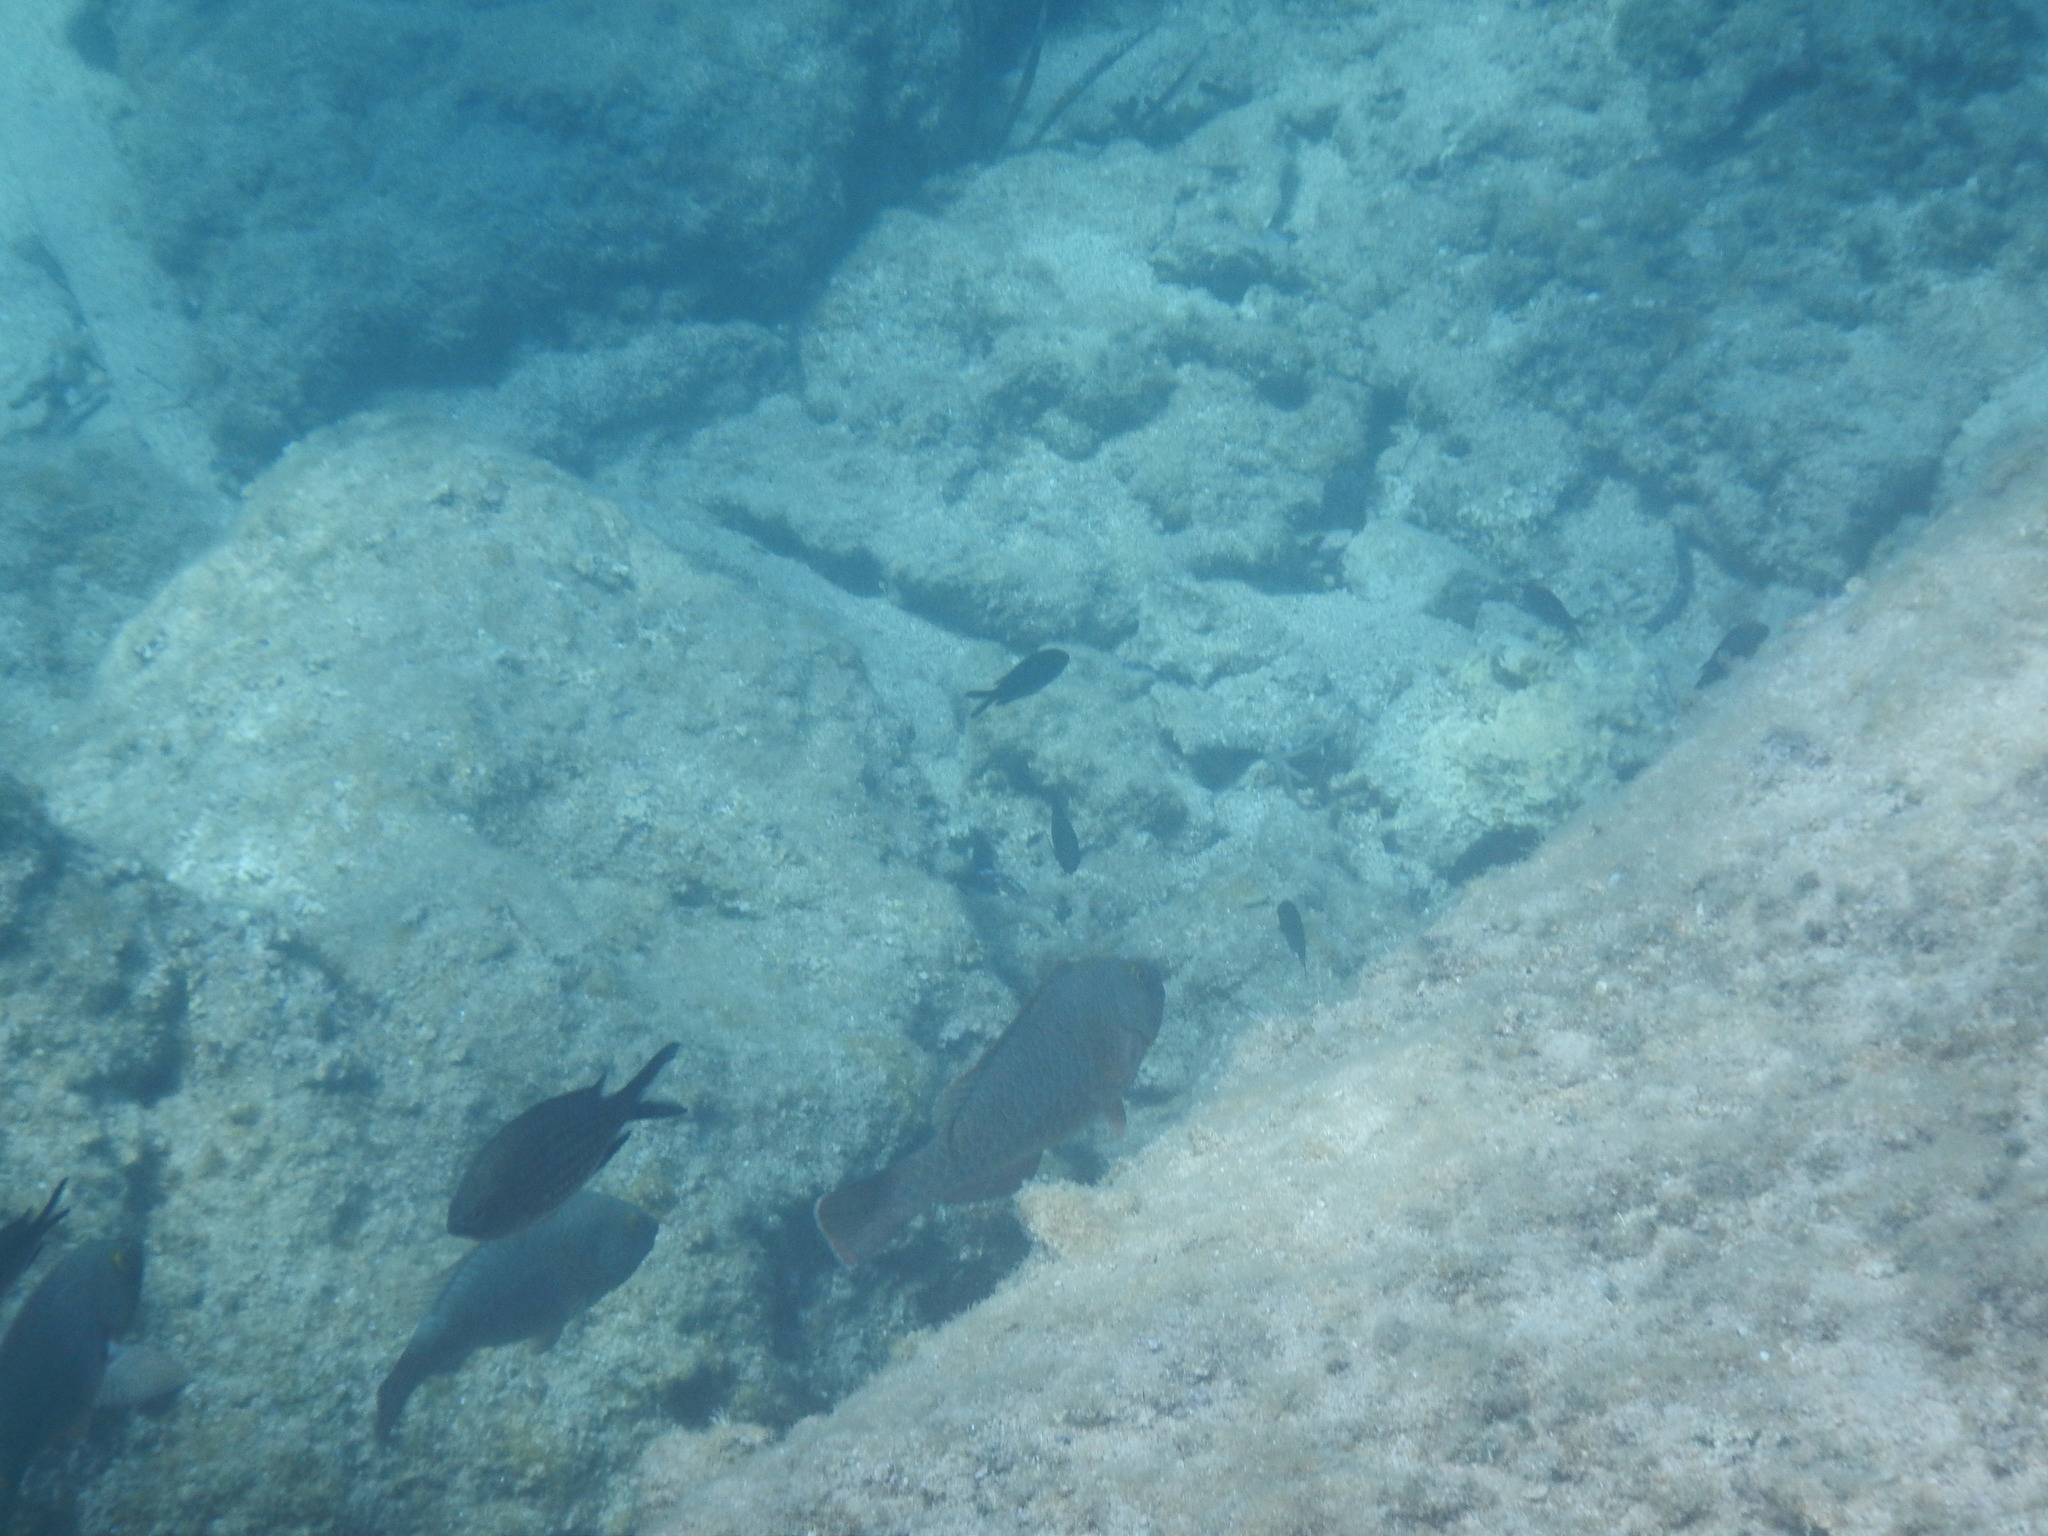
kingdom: Animalia
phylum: Chordata
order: Perciformes
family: Scaridae
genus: Sparisoma
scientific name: Sparisoma cretense
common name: Parrotfish
